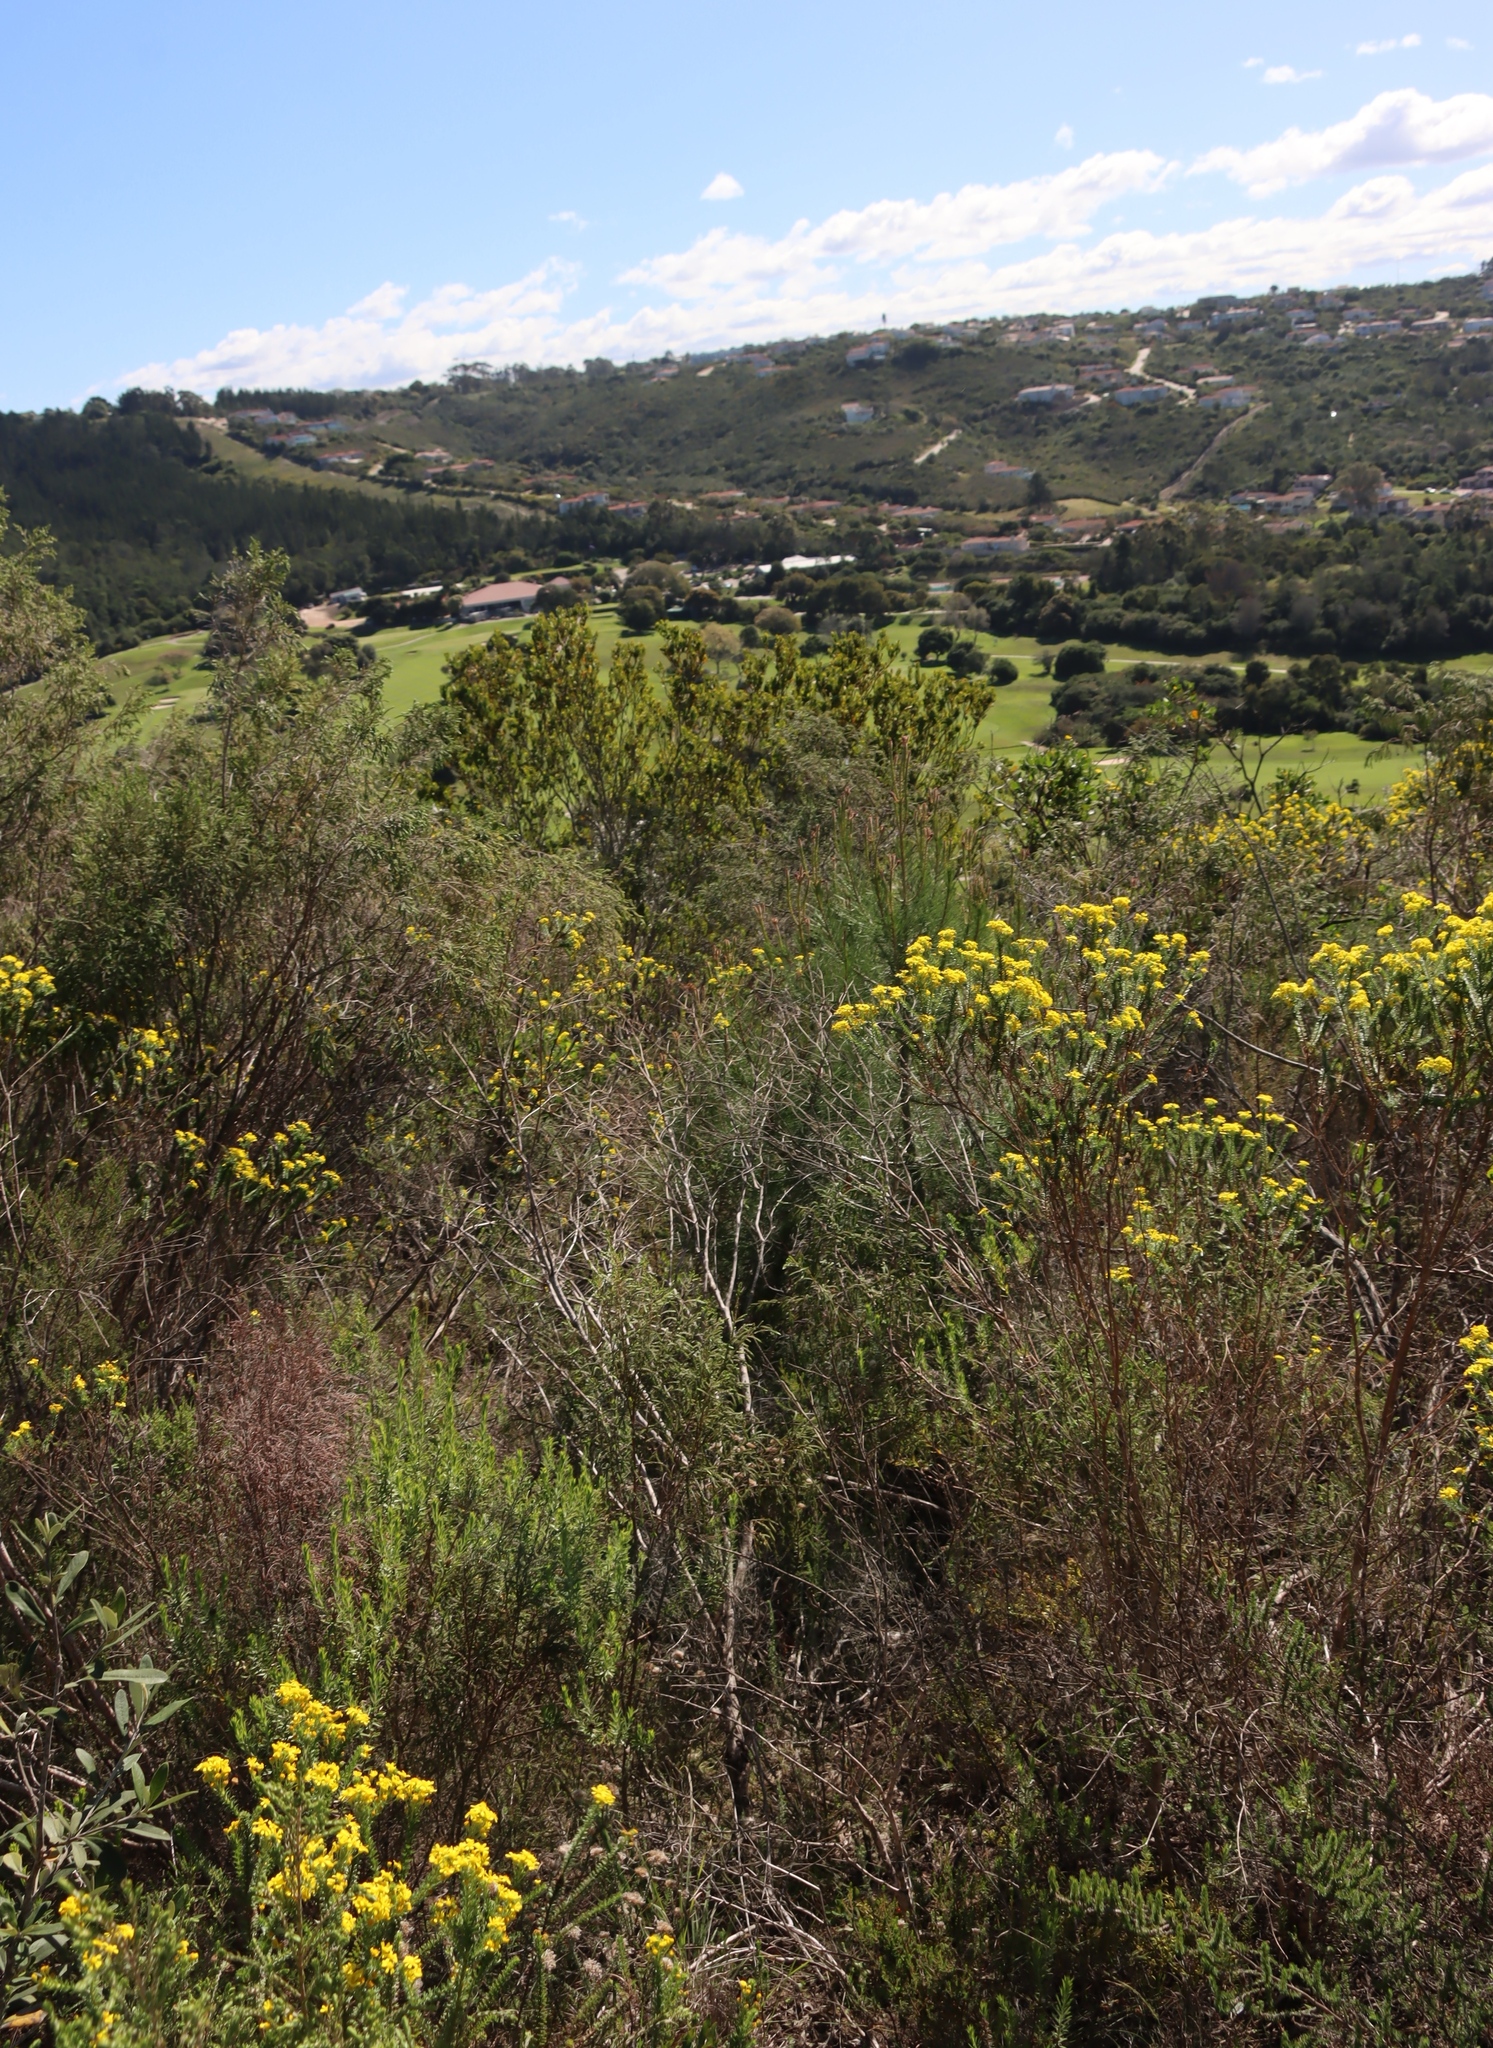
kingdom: Plantae
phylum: Tracheophyta
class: Pinopsida
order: Pinales
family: Pinaceae
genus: Pinus
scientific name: Pinus radiata
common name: Monterey pine
